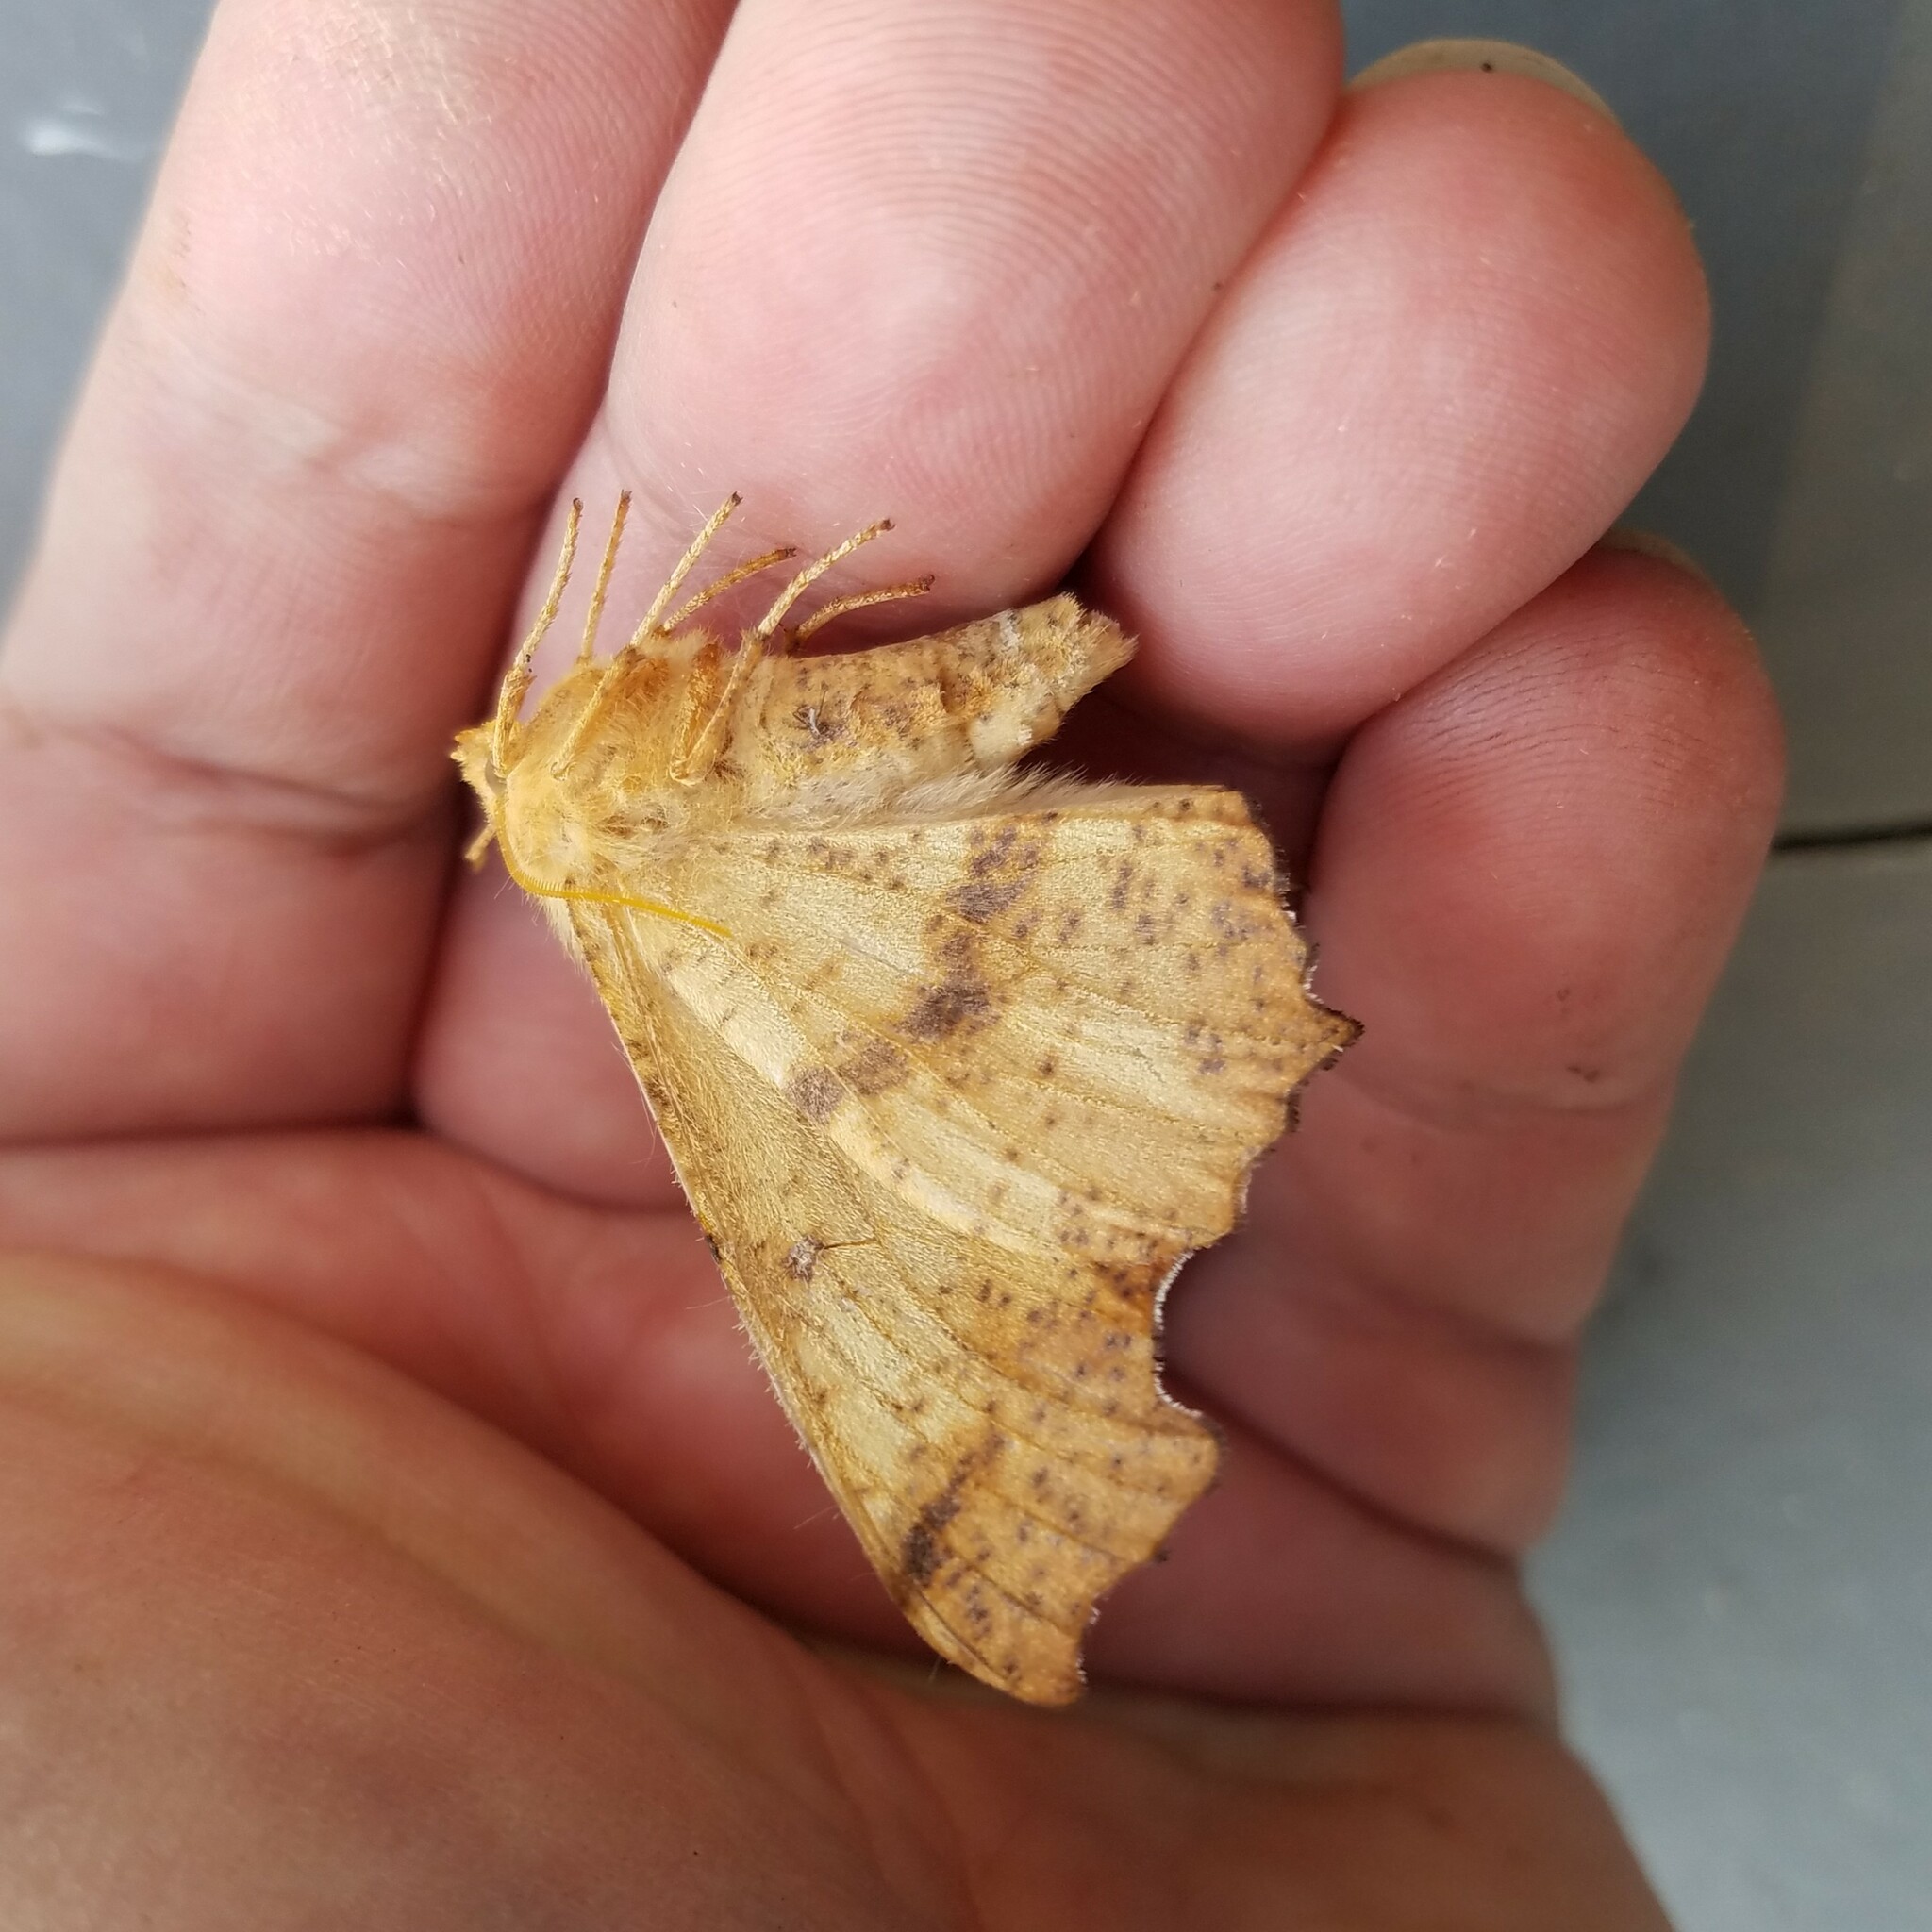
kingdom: Animalia
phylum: Arthropoda
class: Insecta
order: Lepidoptera
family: Geometridae
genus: Ennomos
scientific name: Ennomos magnaria
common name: Maple spanworm
